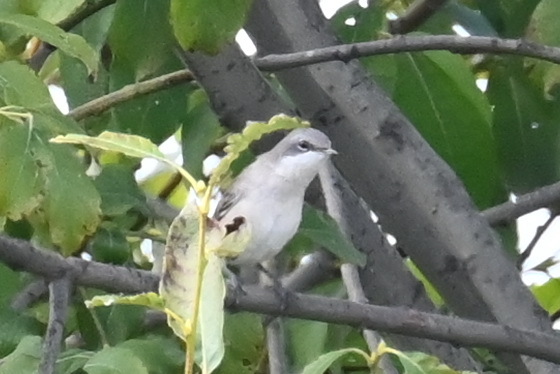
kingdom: Animalia
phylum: Chordata
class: Aves
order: Passeriformes
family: Sylviidae
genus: Sylvia
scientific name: Sylvia curruca
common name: Lesser whitethroat
